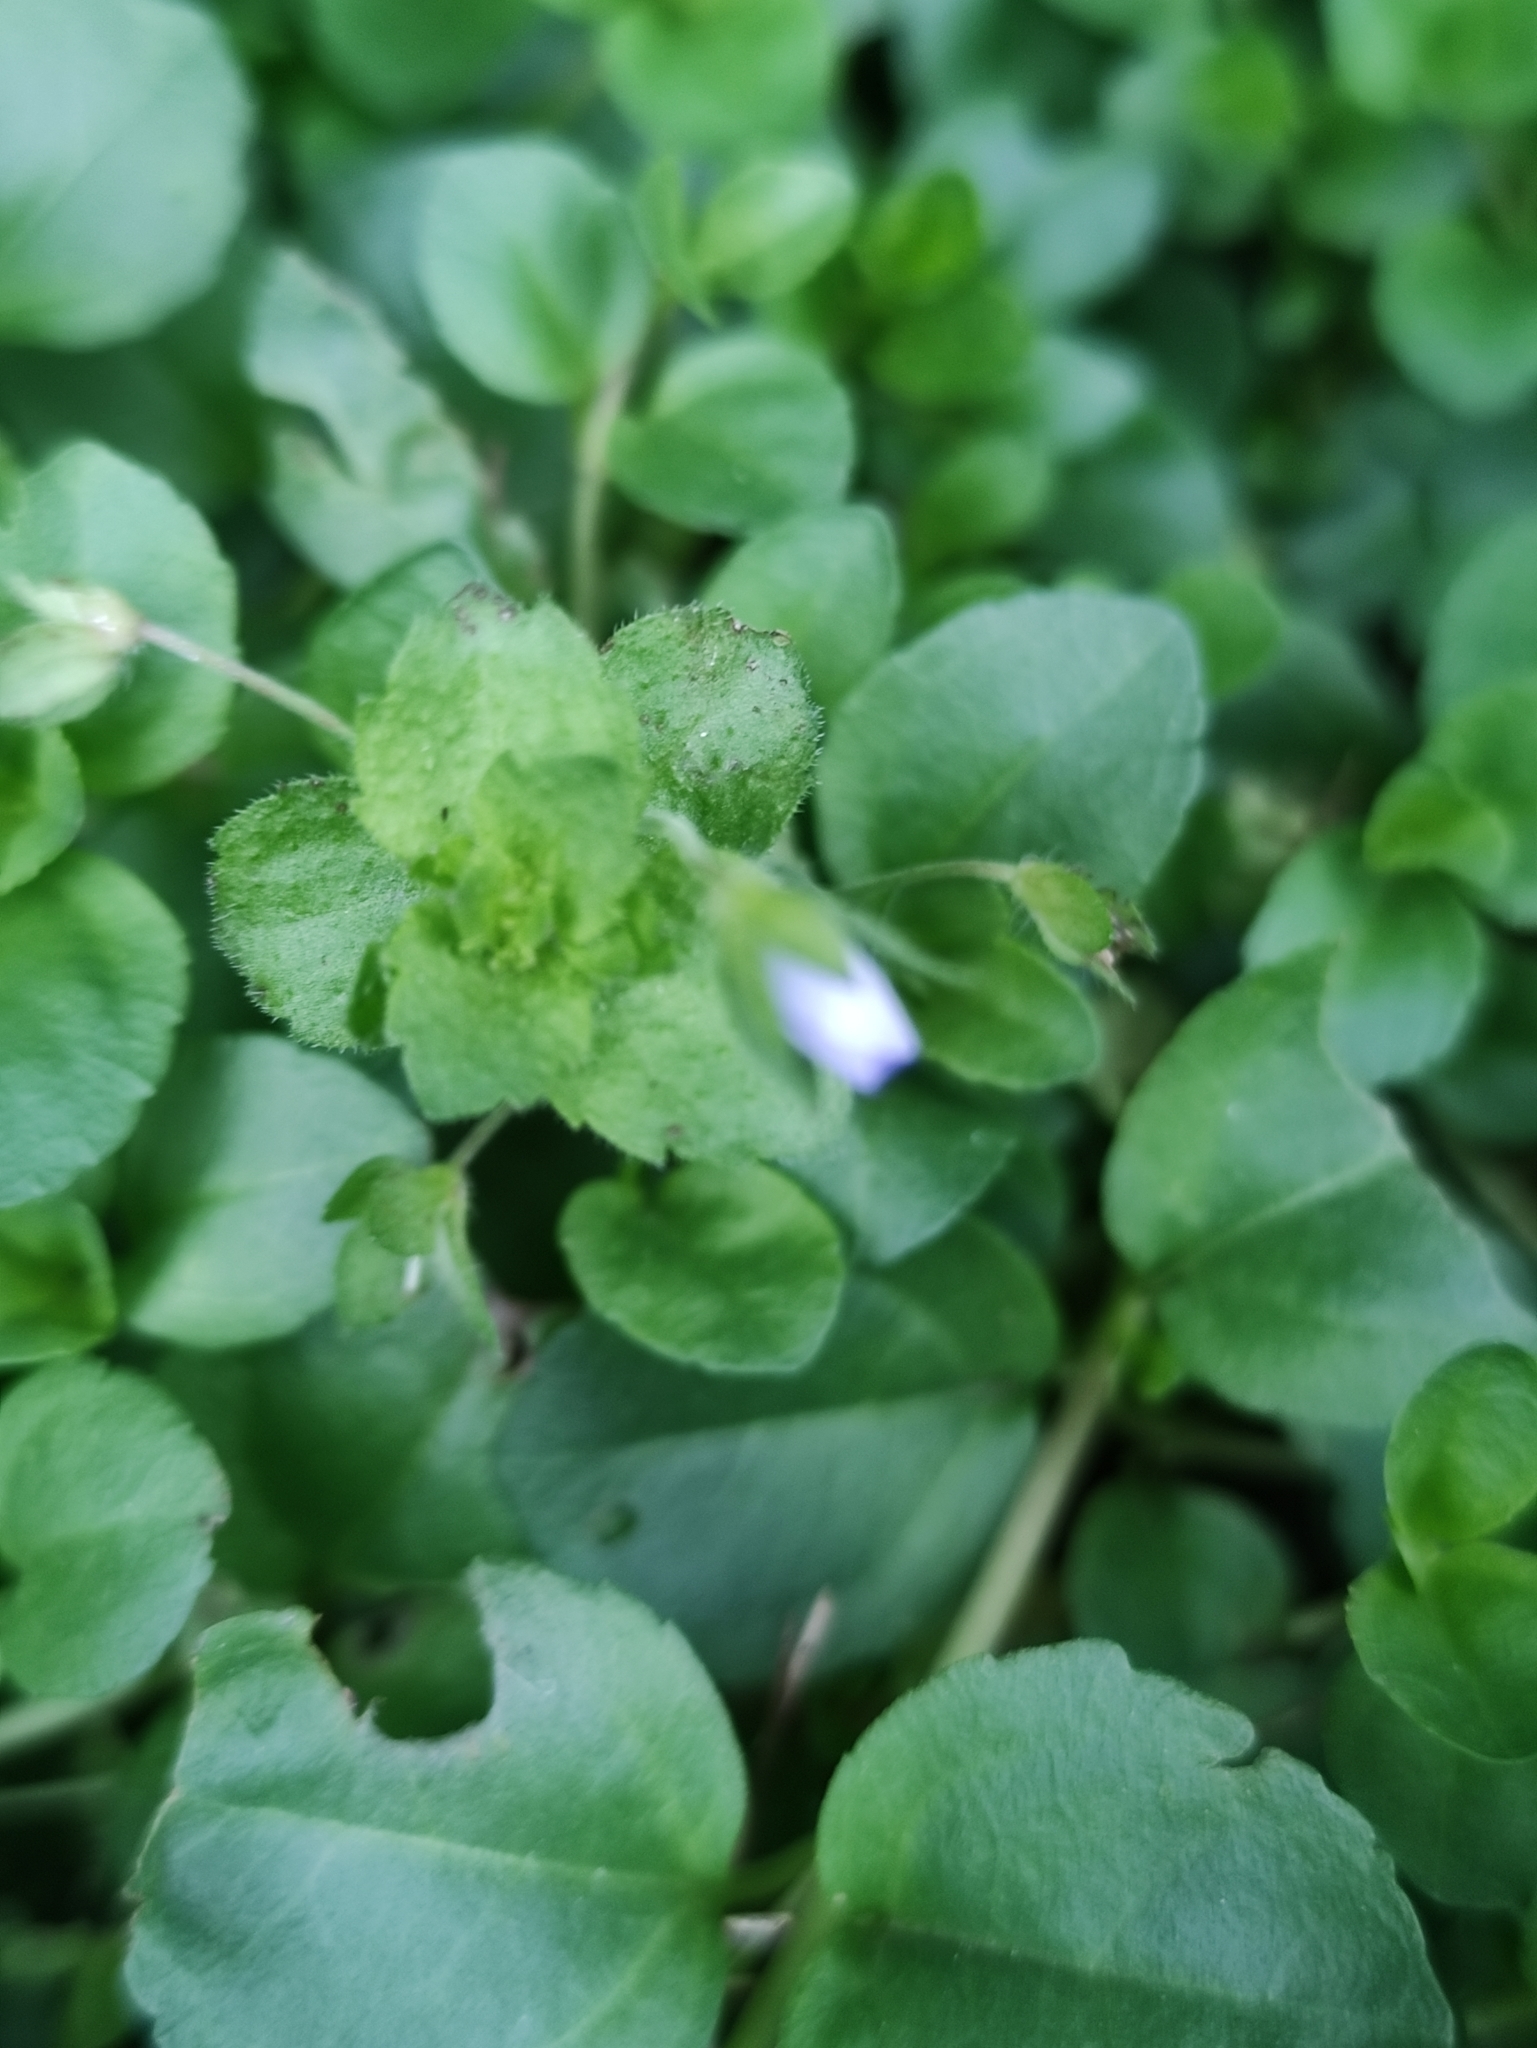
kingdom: Plantae
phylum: Tracheophyta
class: Magnoliopsida
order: Lamiales
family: Plantaginaceae
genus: Veronica
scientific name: Veronica serpyllifolia
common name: Thyme-leaved speedwell
